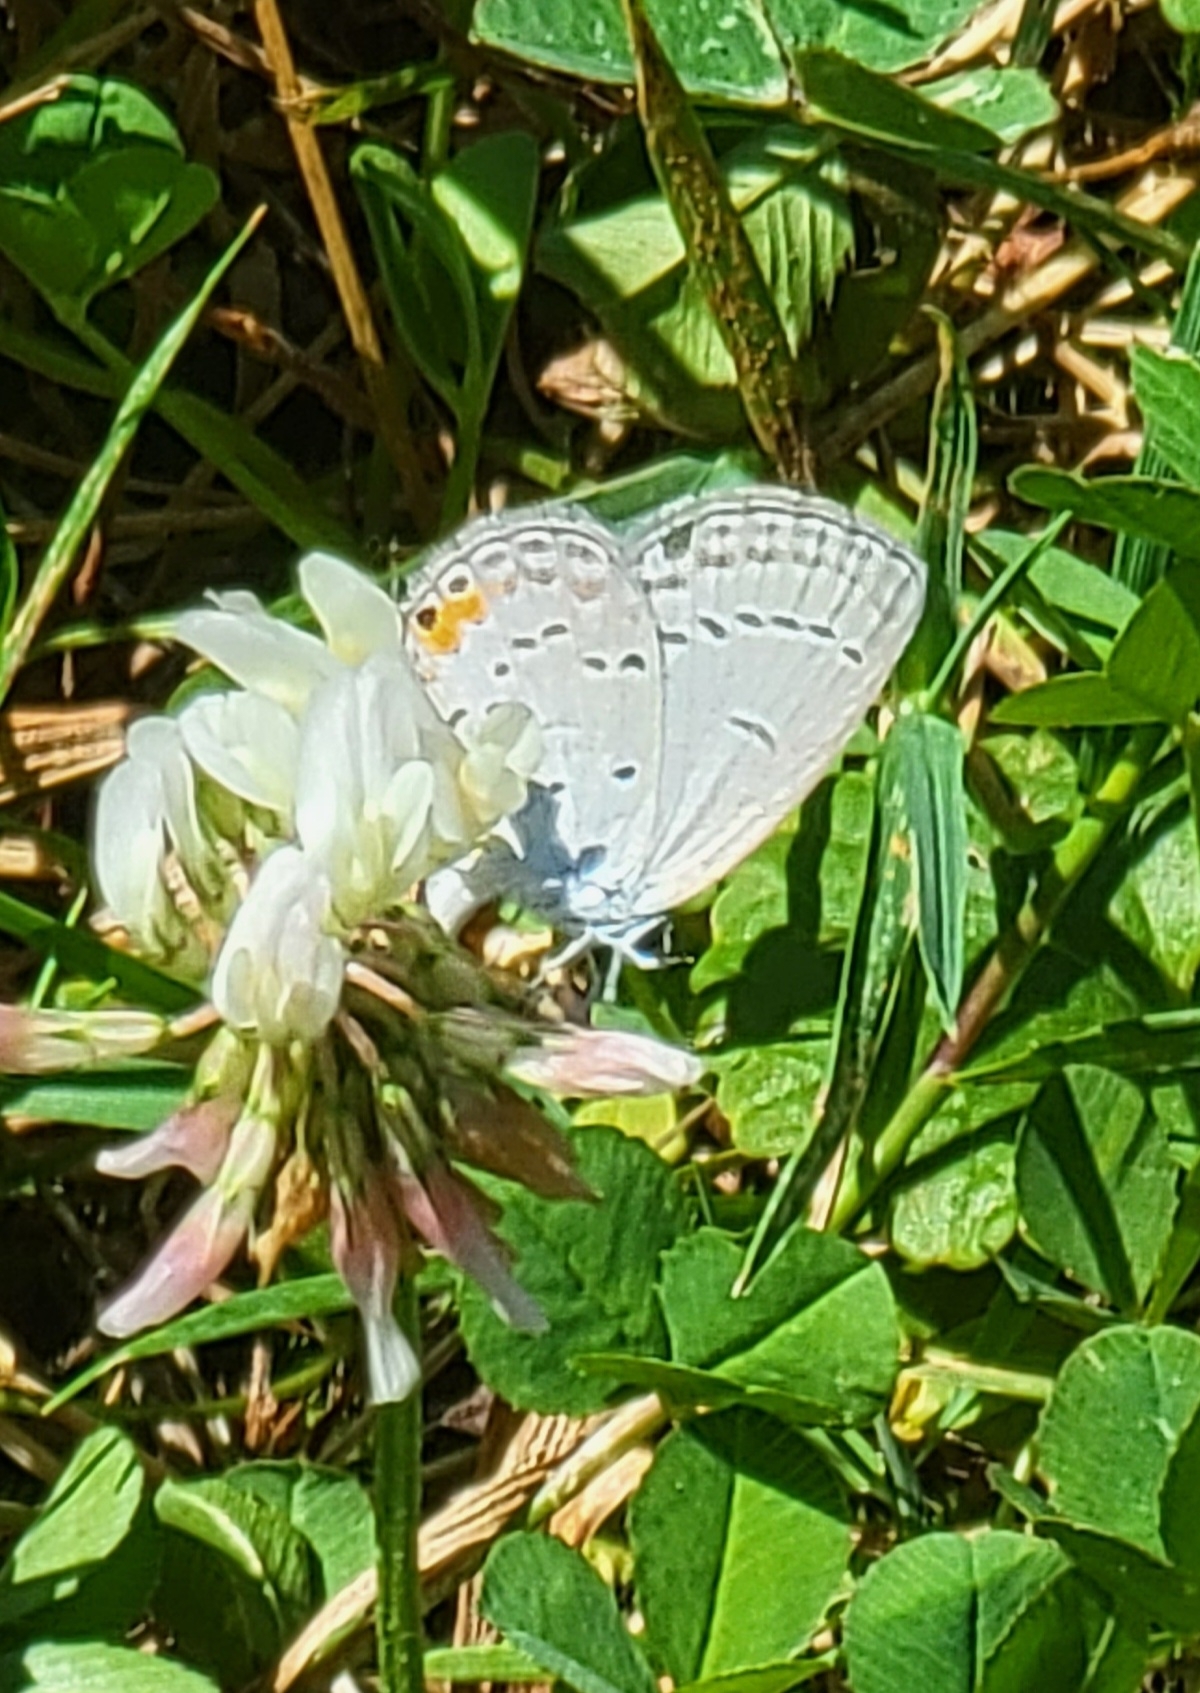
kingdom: Animalia
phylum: Arthropoda
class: Insecta
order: Lepidoptera
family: Lycaenidae
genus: Elkalyce
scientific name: Elkalyce comyntas
